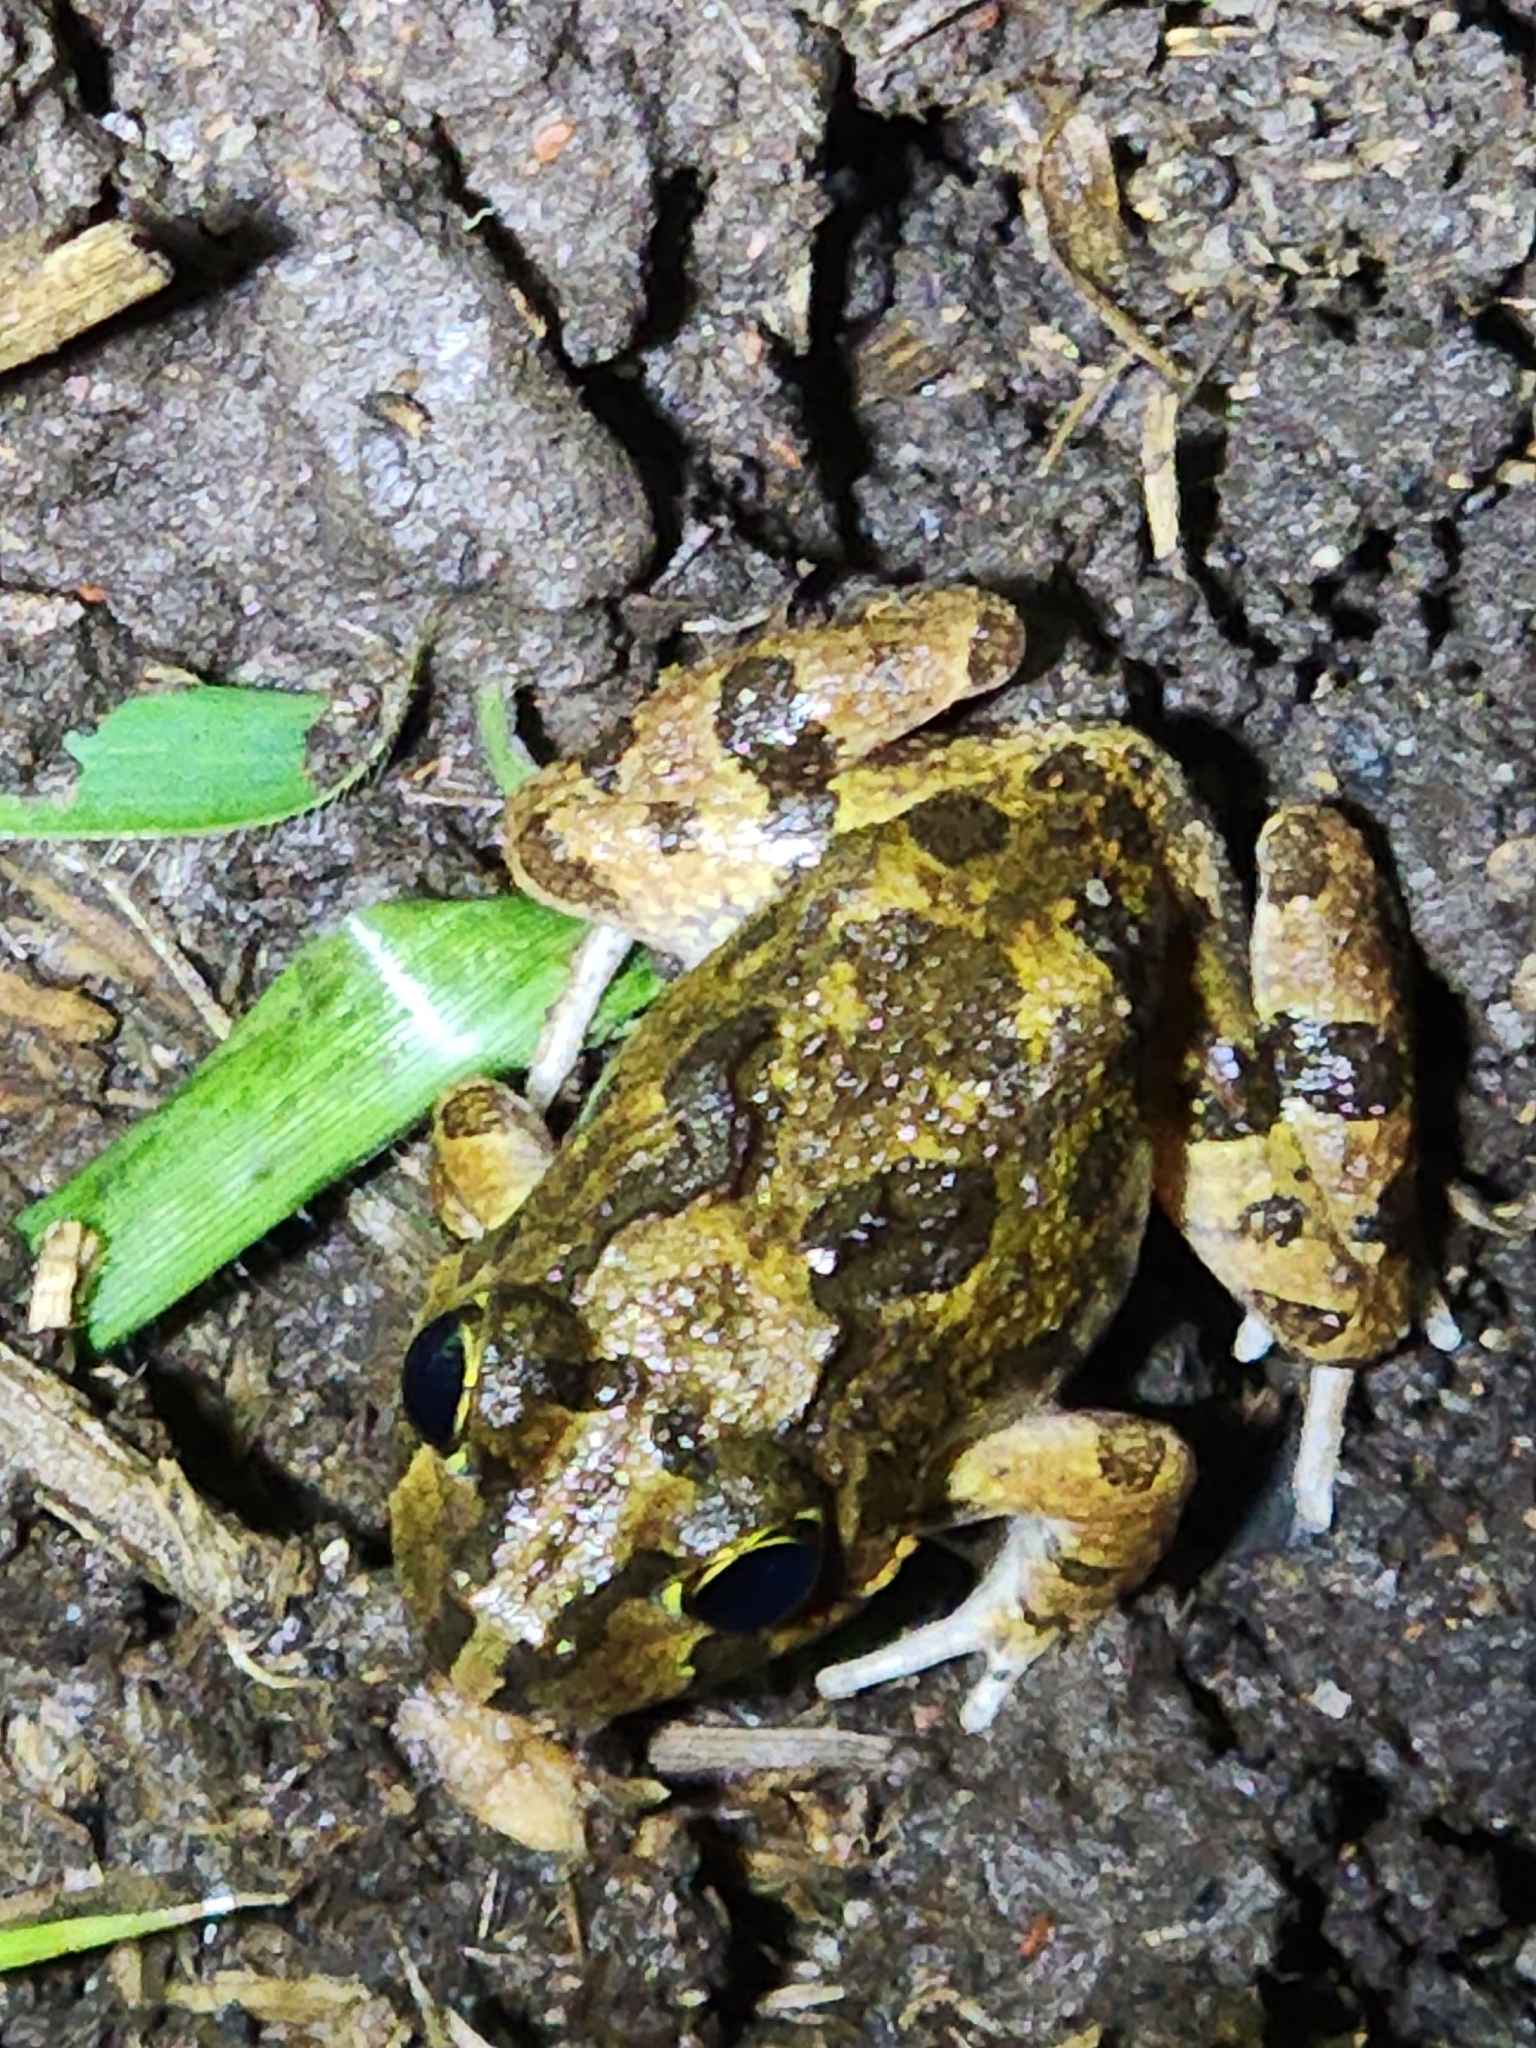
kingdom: Animalia
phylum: Chordata
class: Amphibia
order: Anura
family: Limnodynastidae
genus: Platyplectrum
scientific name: Platyplectrum ornatum
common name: Ornate burrowing frog
